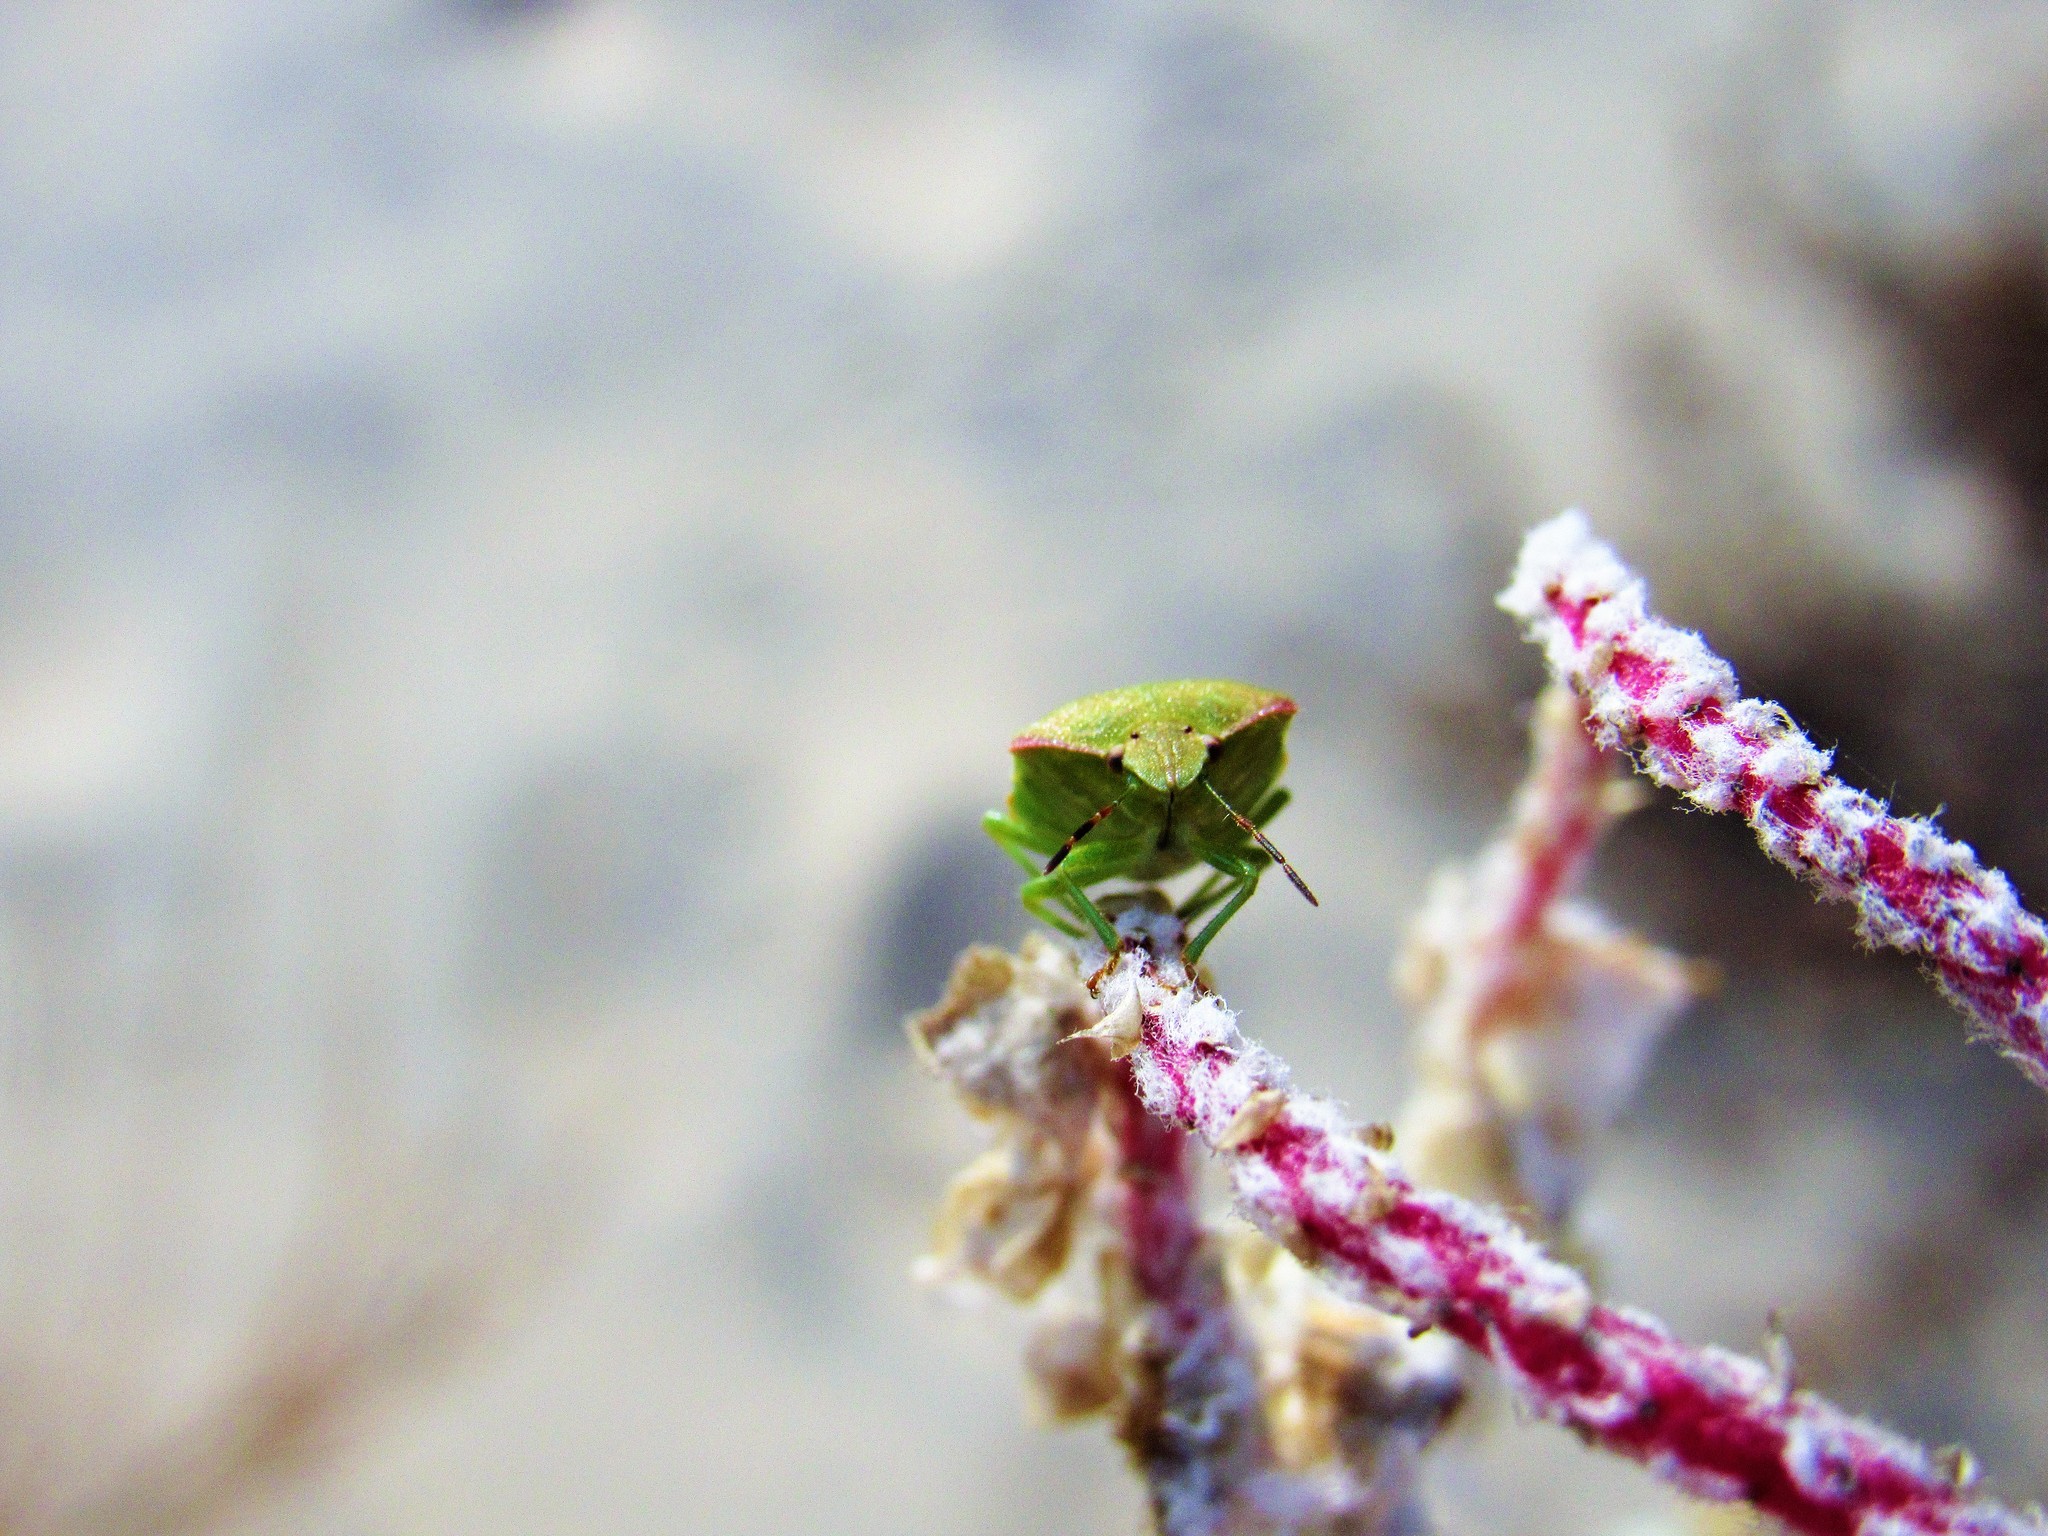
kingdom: Animalia
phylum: Arthropoda
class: Insecta
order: Hemiptera
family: Pentatomidae
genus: Thyanta
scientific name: Thyanta custator
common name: Stink bug
